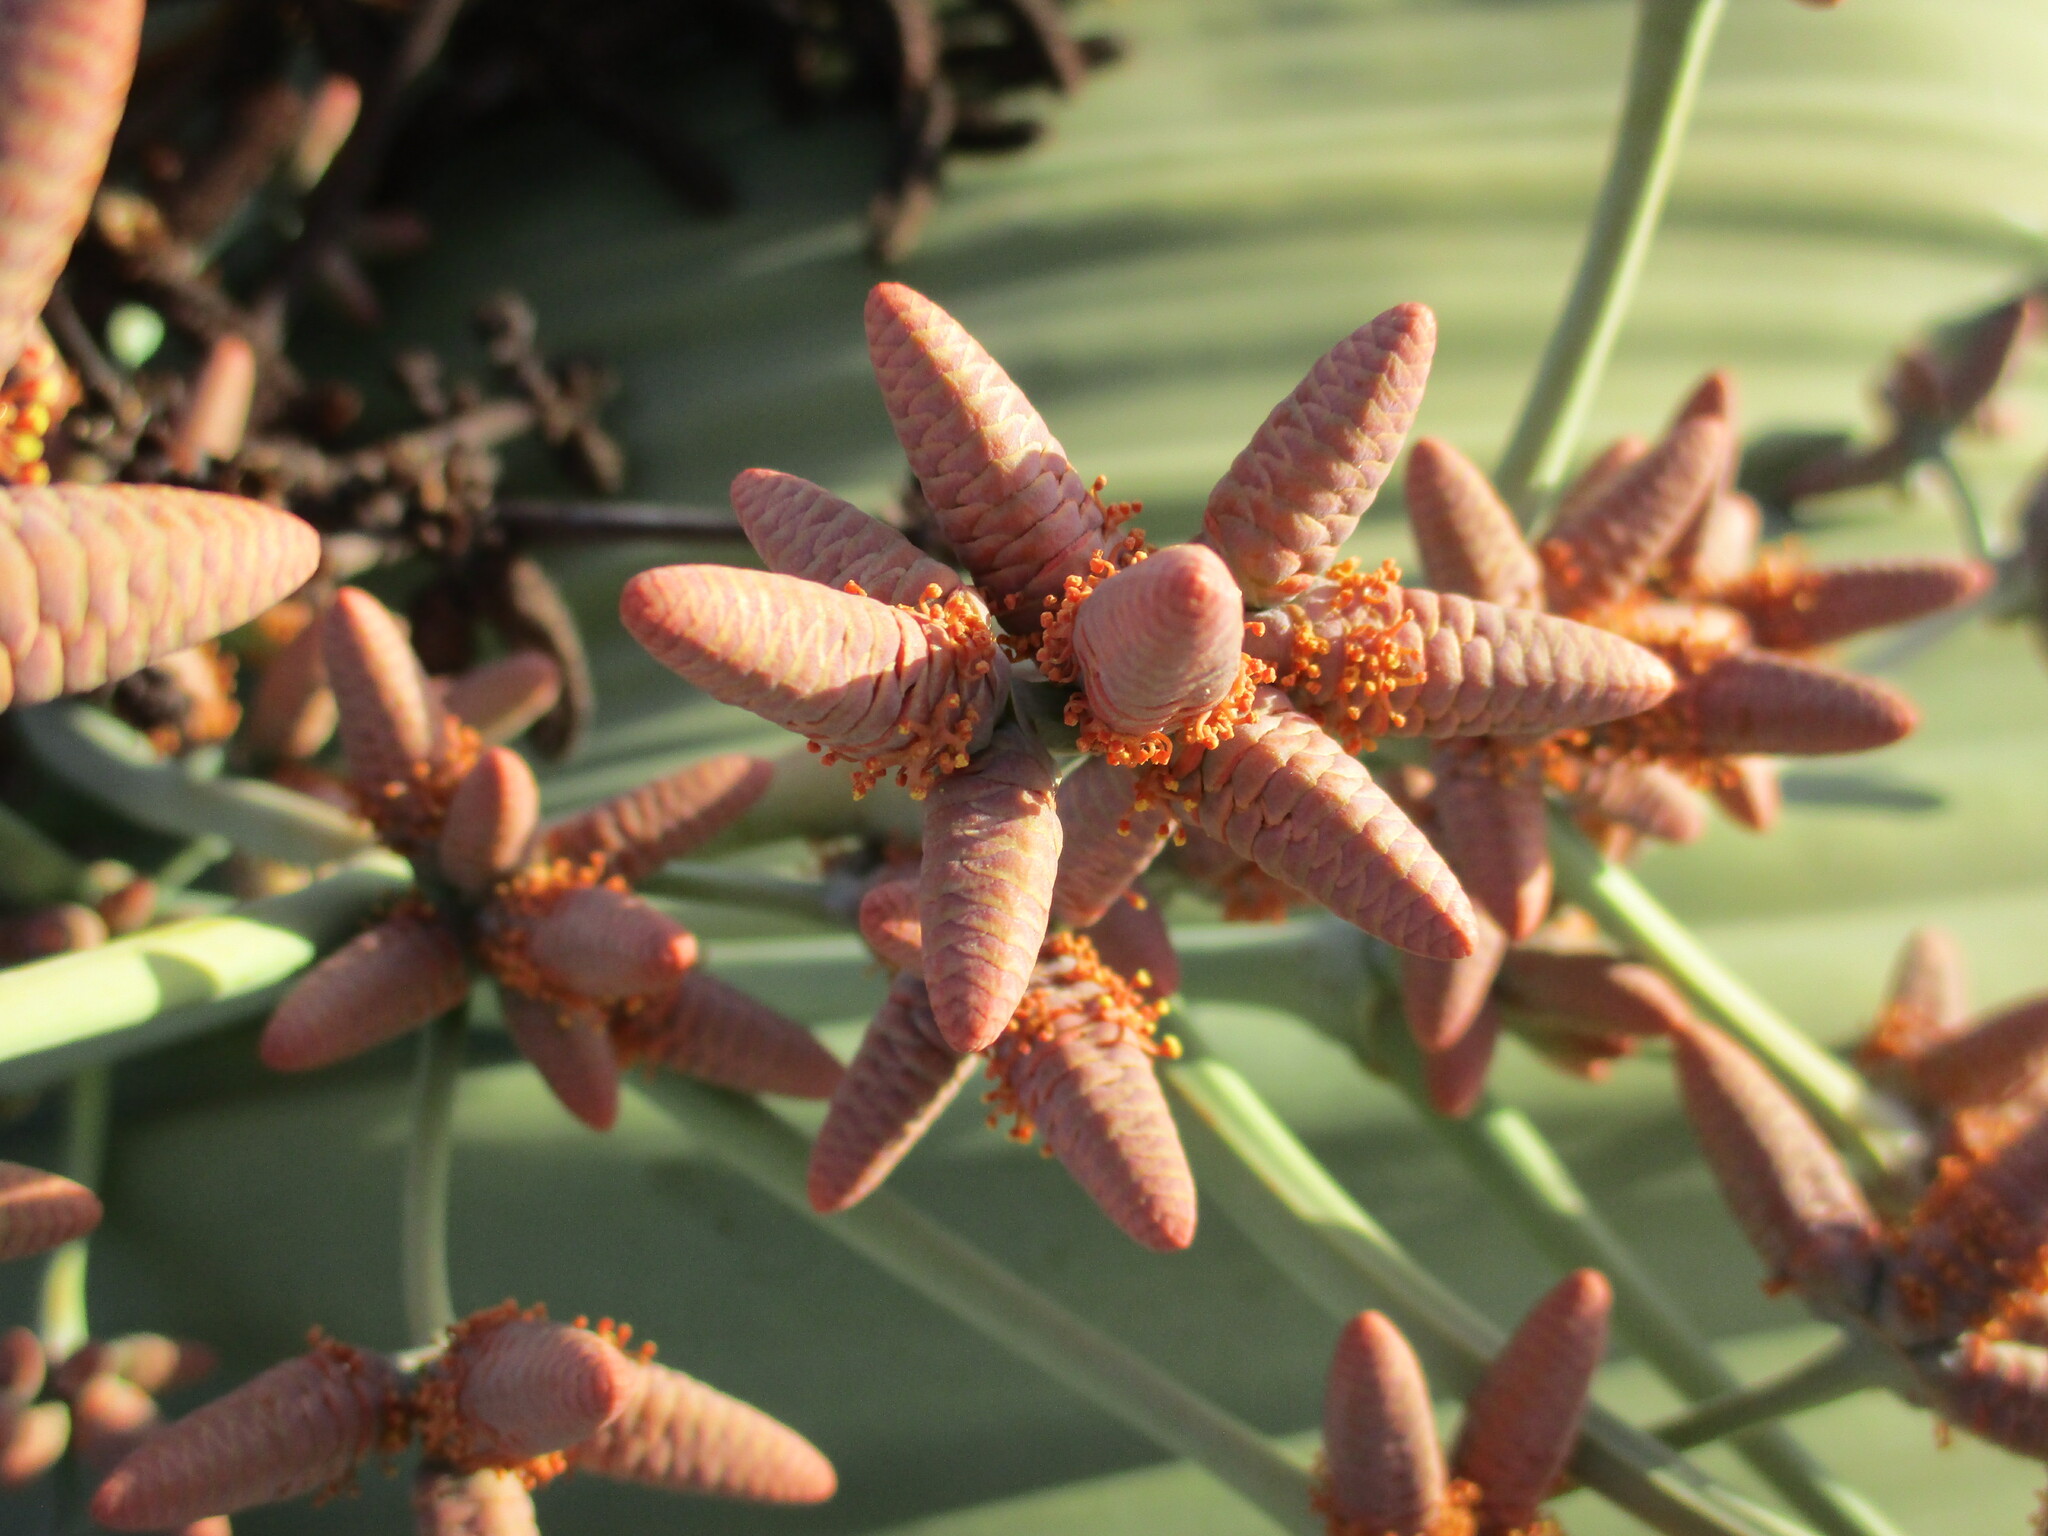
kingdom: Plantae
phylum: Tracheophyta
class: Gnetopsida
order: Welwitschiales
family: Welwitschiaceae
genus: Welwitschia
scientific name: Welwitschia mirabilis
